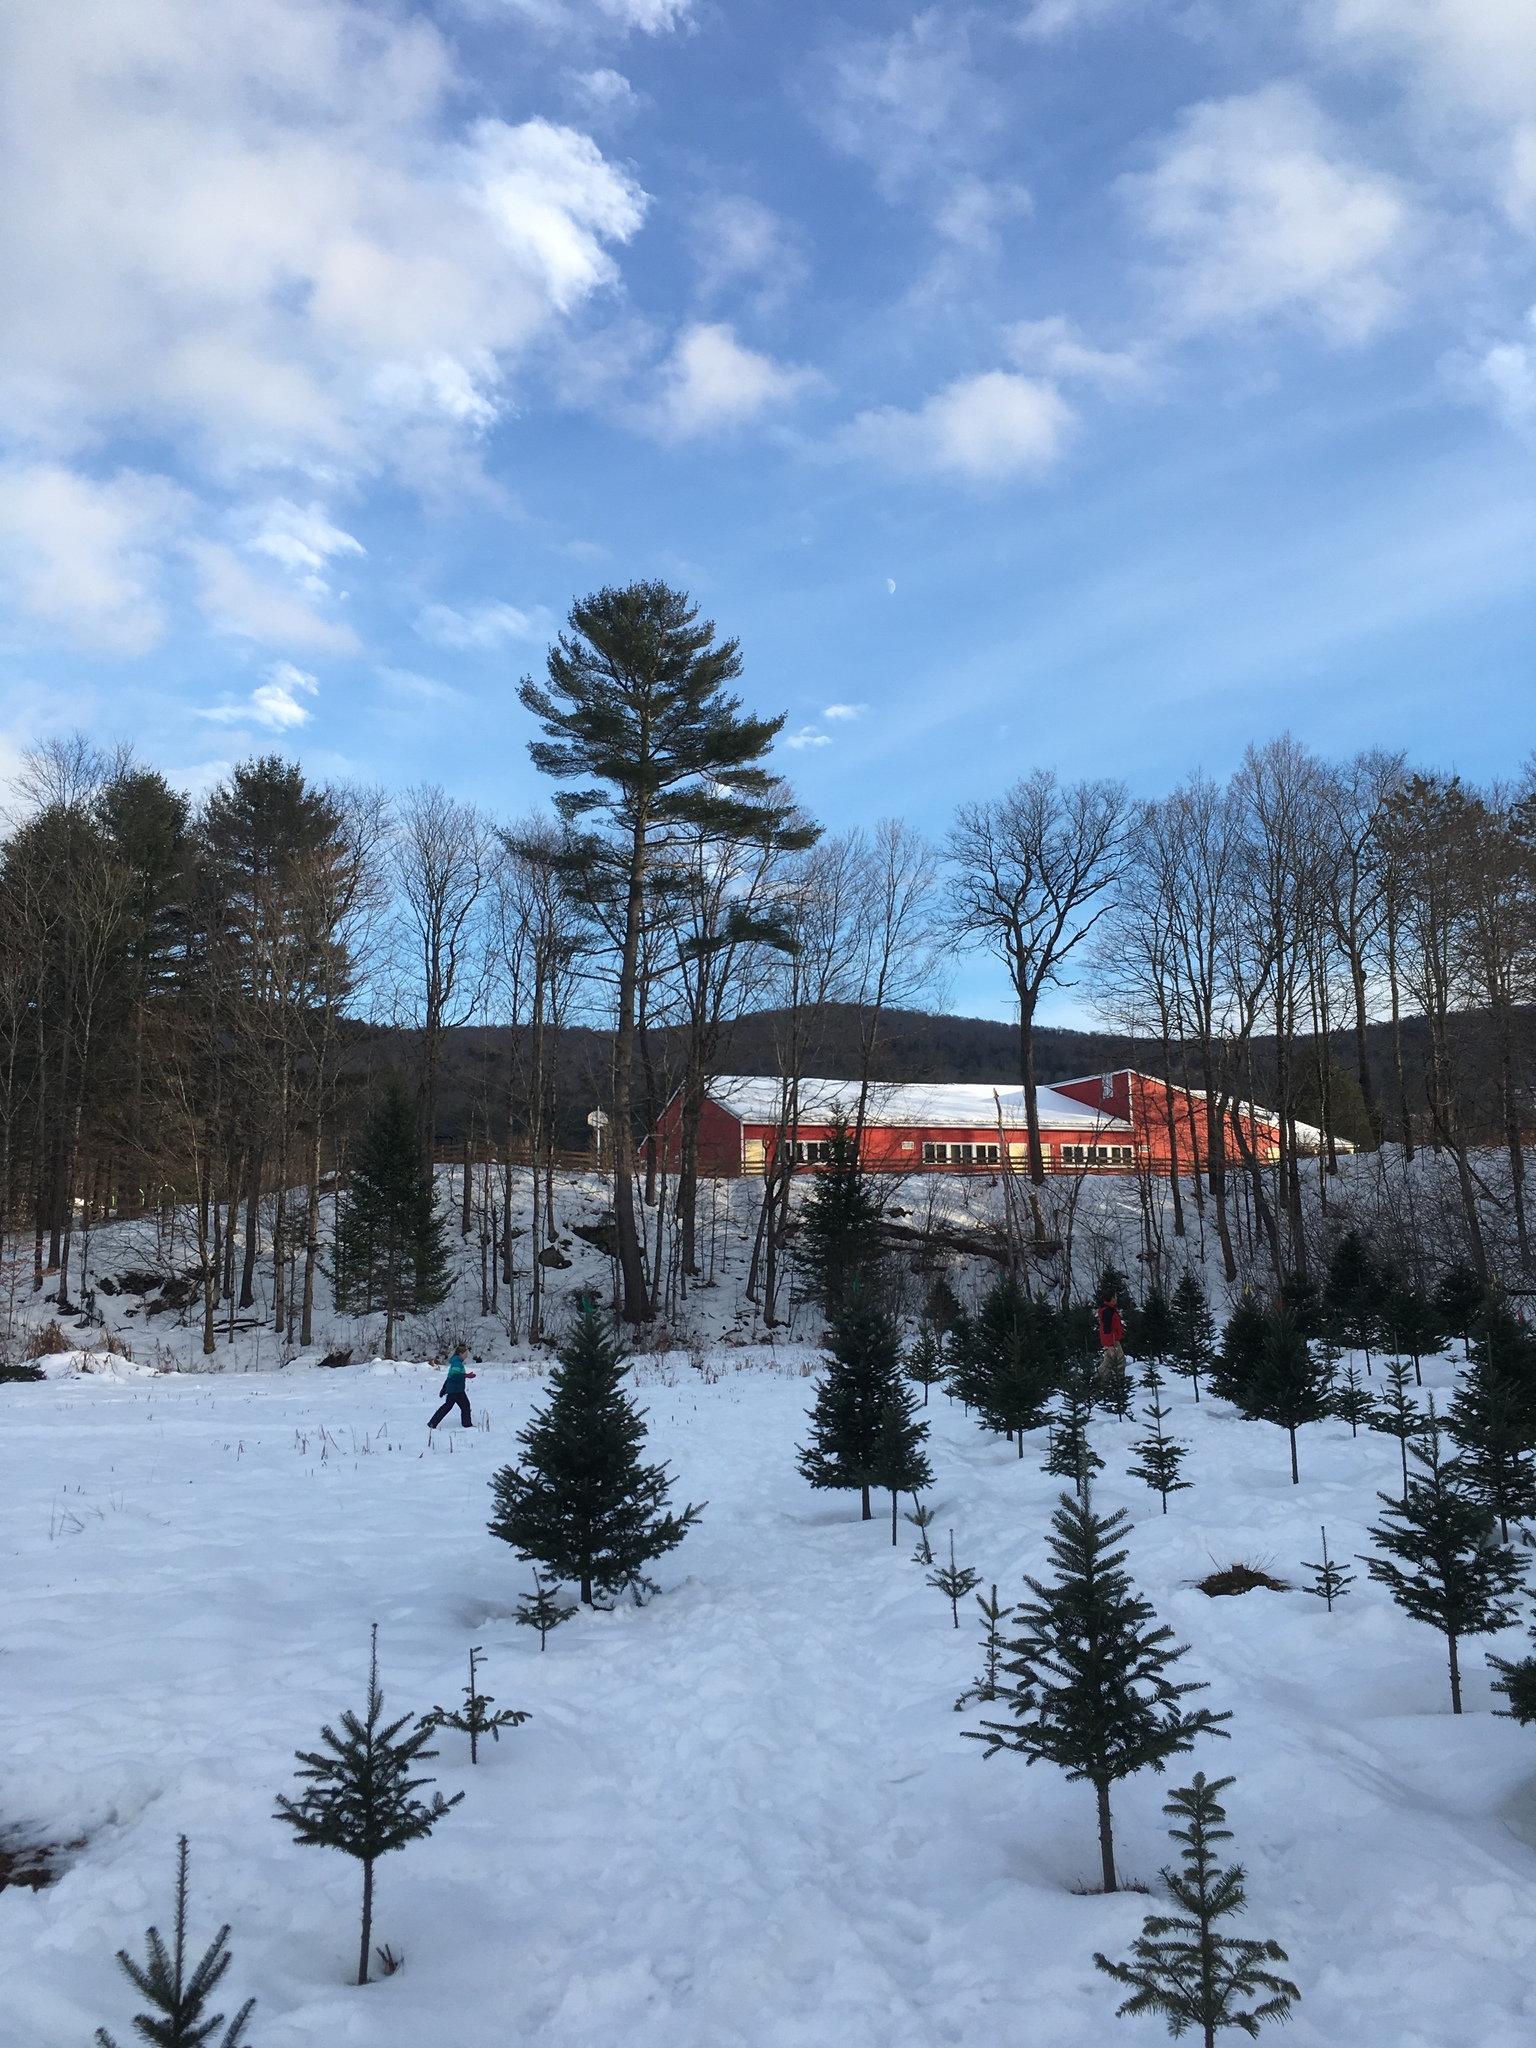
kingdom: Plantae
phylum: Tracheophyta
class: Pinopsida
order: Pinales
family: Pinaceae
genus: Pinus
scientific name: Pinus strobus
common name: Weymouth pine
